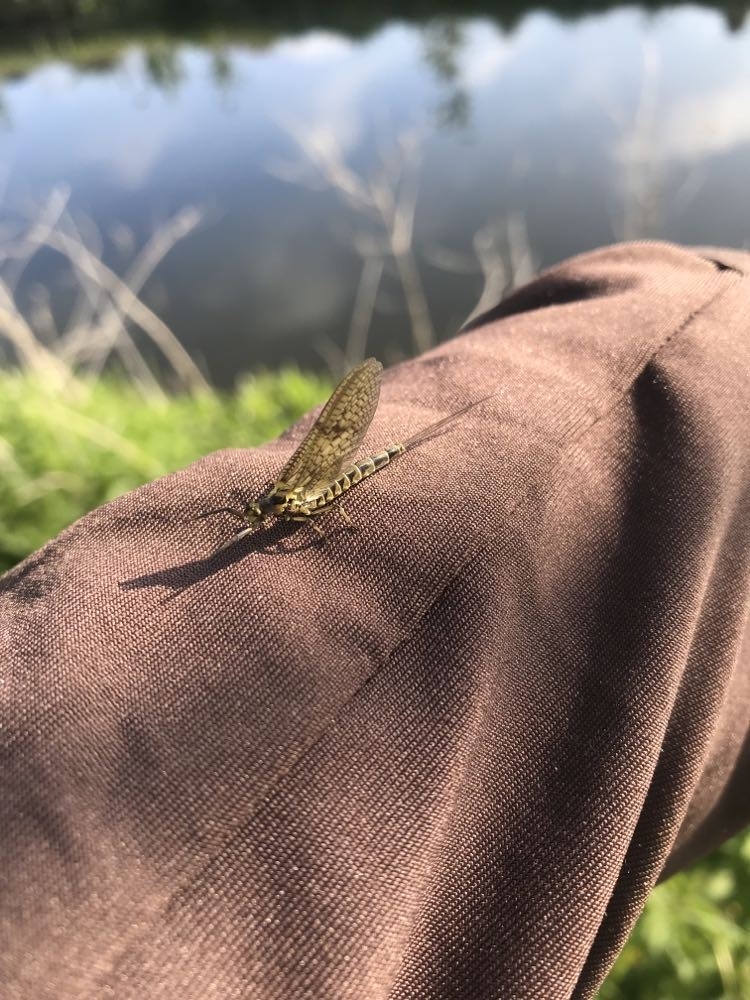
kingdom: Animalia
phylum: Arthropoda
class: Insecta
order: Ephemeroptera
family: Ephemeridae
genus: Ephemera
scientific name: Ephemera vulgata
